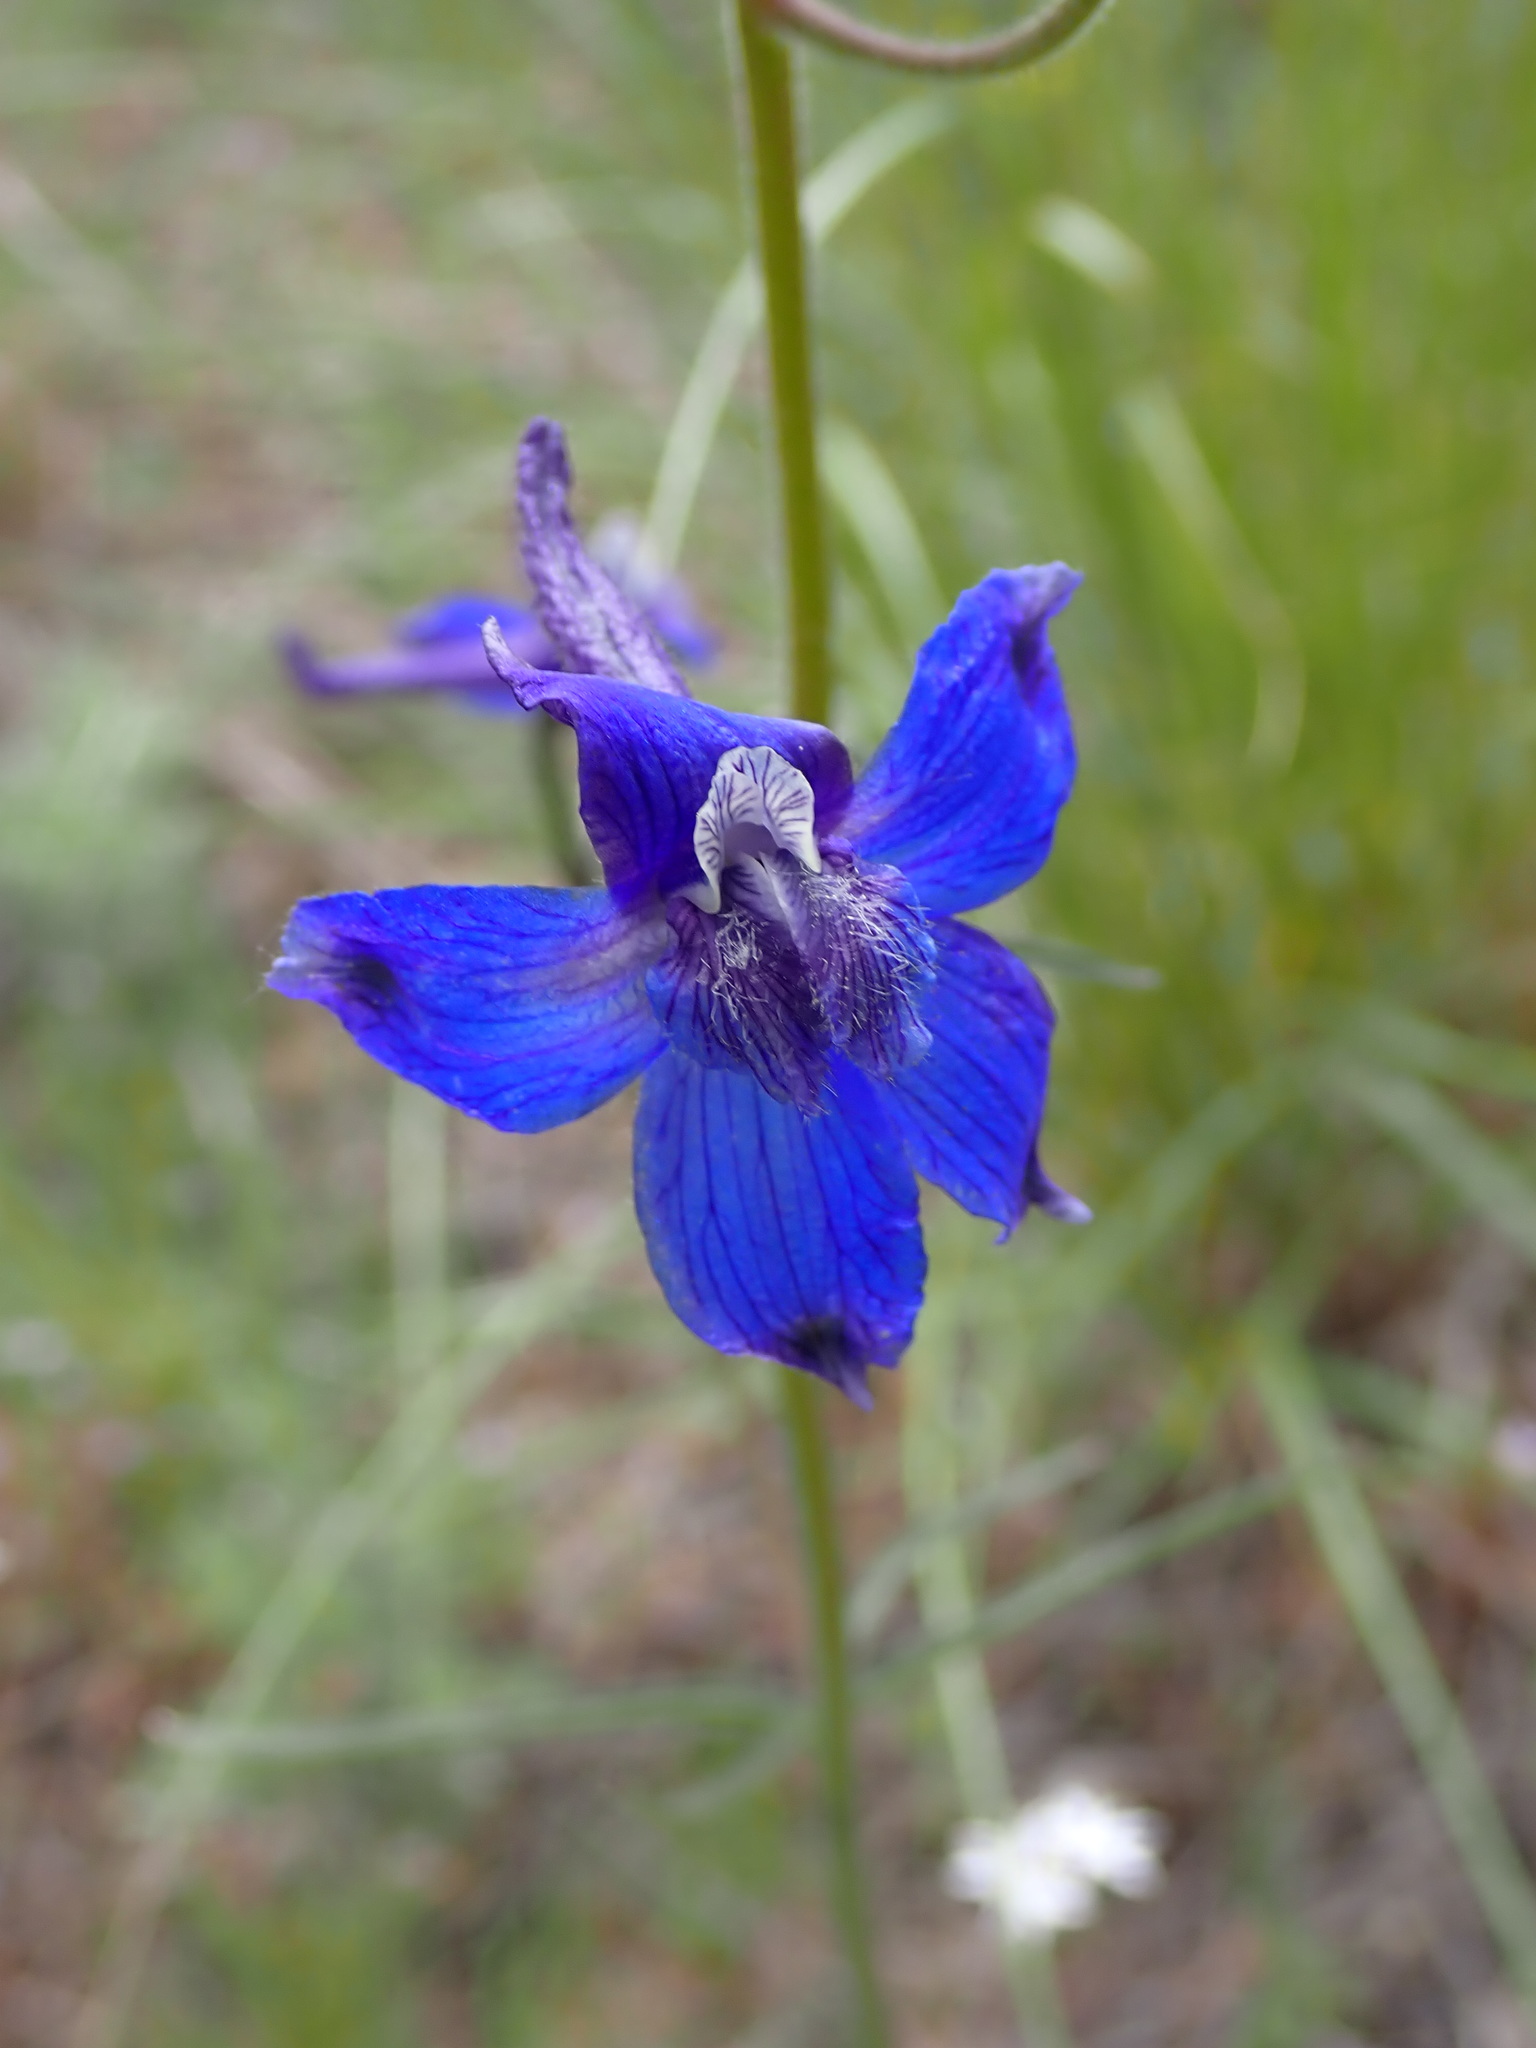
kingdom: Plantae
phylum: Tracheophyta
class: Magnoliopsida
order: Ranunculales
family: Ranunculaceae
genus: Delphinium
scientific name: Delphinium nuttallianum
